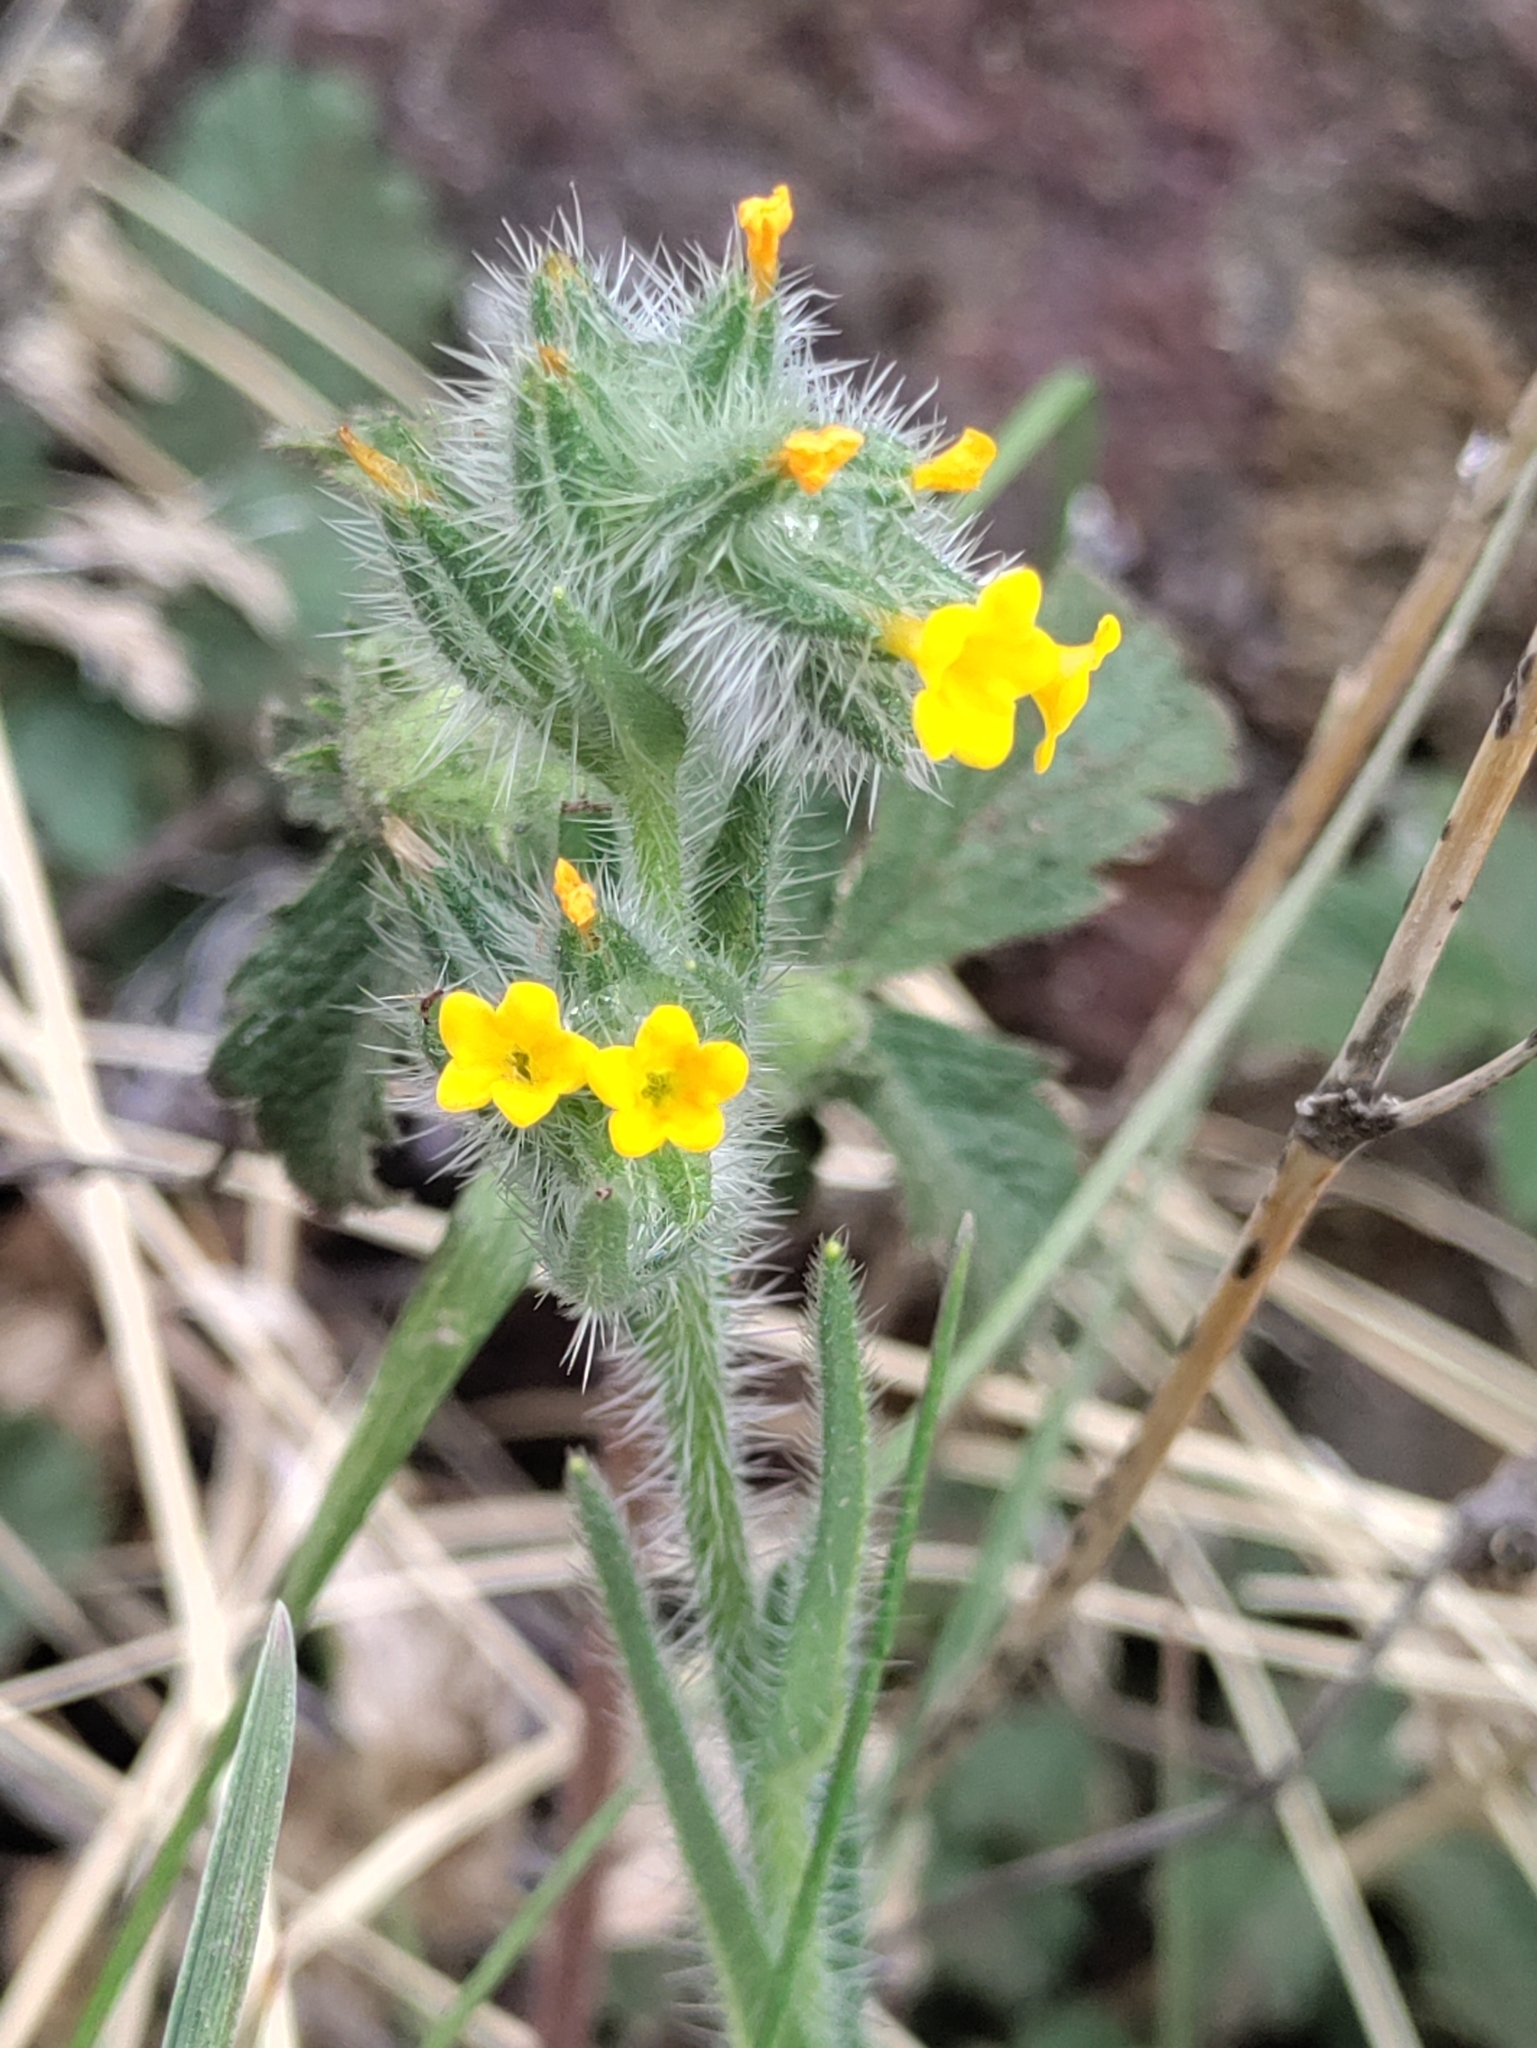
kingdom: Plantae
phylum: Tracheophyta
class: Magnoliopsida
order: Boraginales
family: Boraginaceae
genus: Amsinckia
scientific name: Amsinckia menziesii
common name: Menzies' fiddleneck
